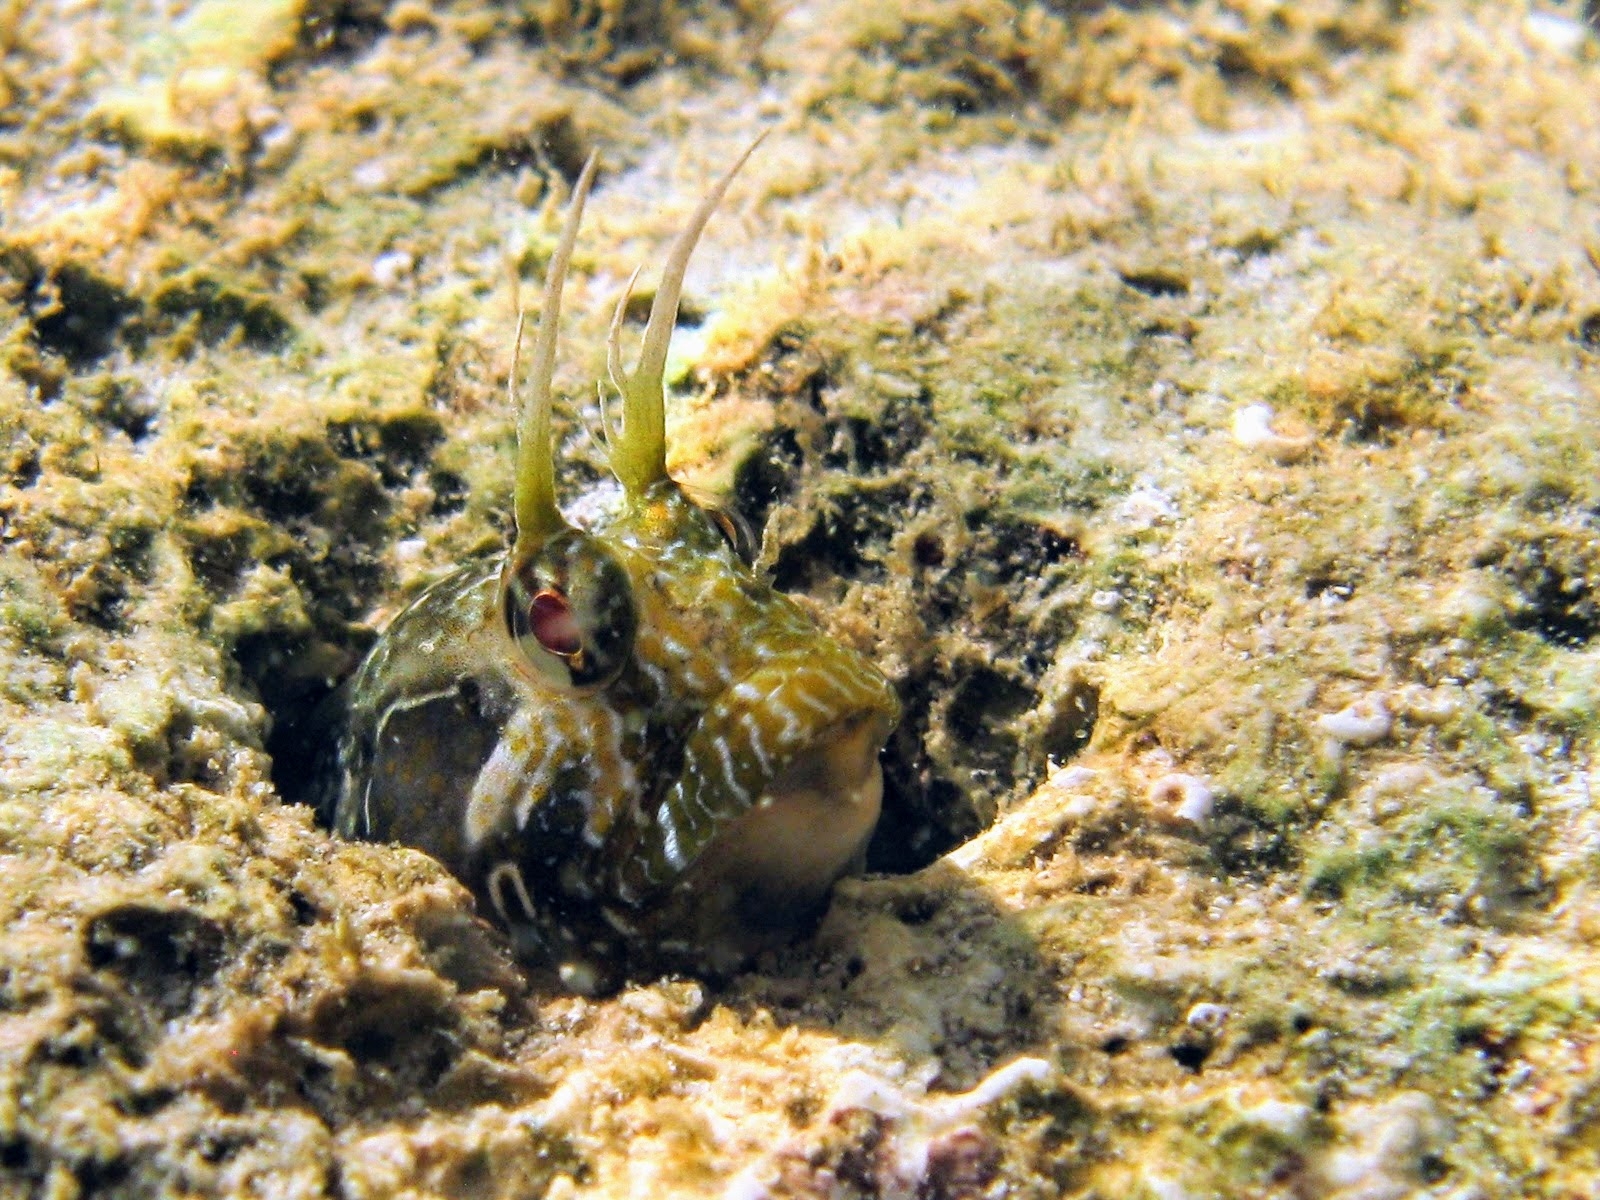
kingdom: Animalia
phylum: Chordata
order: Perciformes
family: Blenniidae
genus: Parablennius
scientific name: Parablennius incognitus
